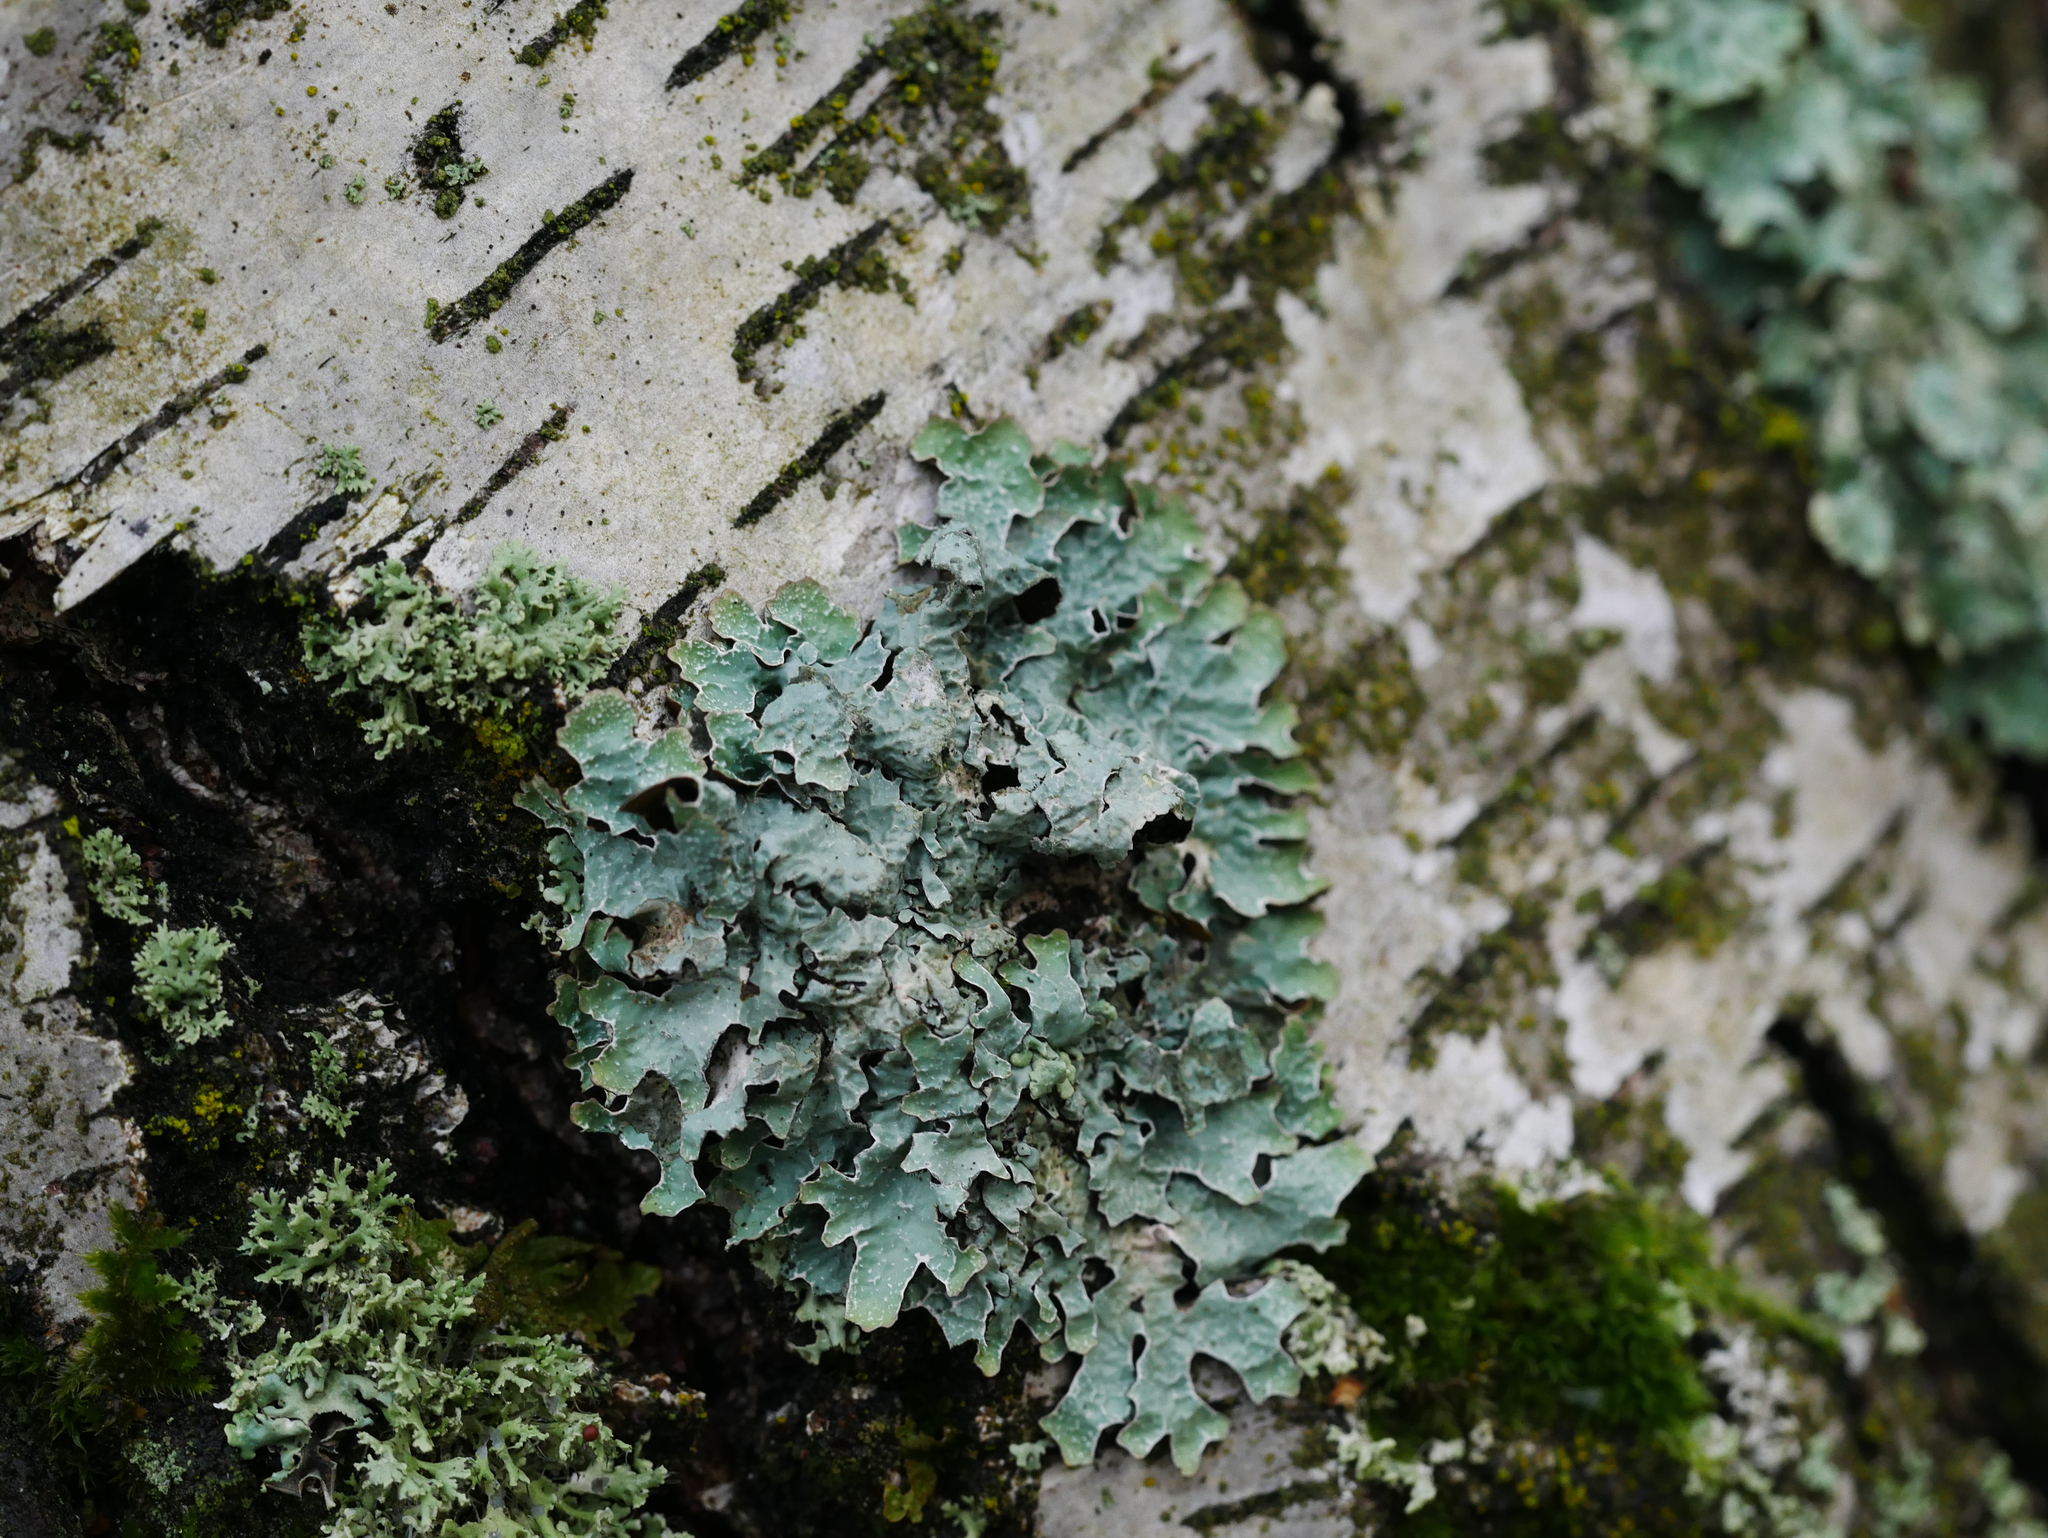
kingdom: Fungi
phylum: Ascomycota
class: Lecanoromycetes
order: Lecanorales
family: Parmeliaceae
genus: Parmelia
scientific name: Parmelia sulcata
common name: Netted shield lichen
